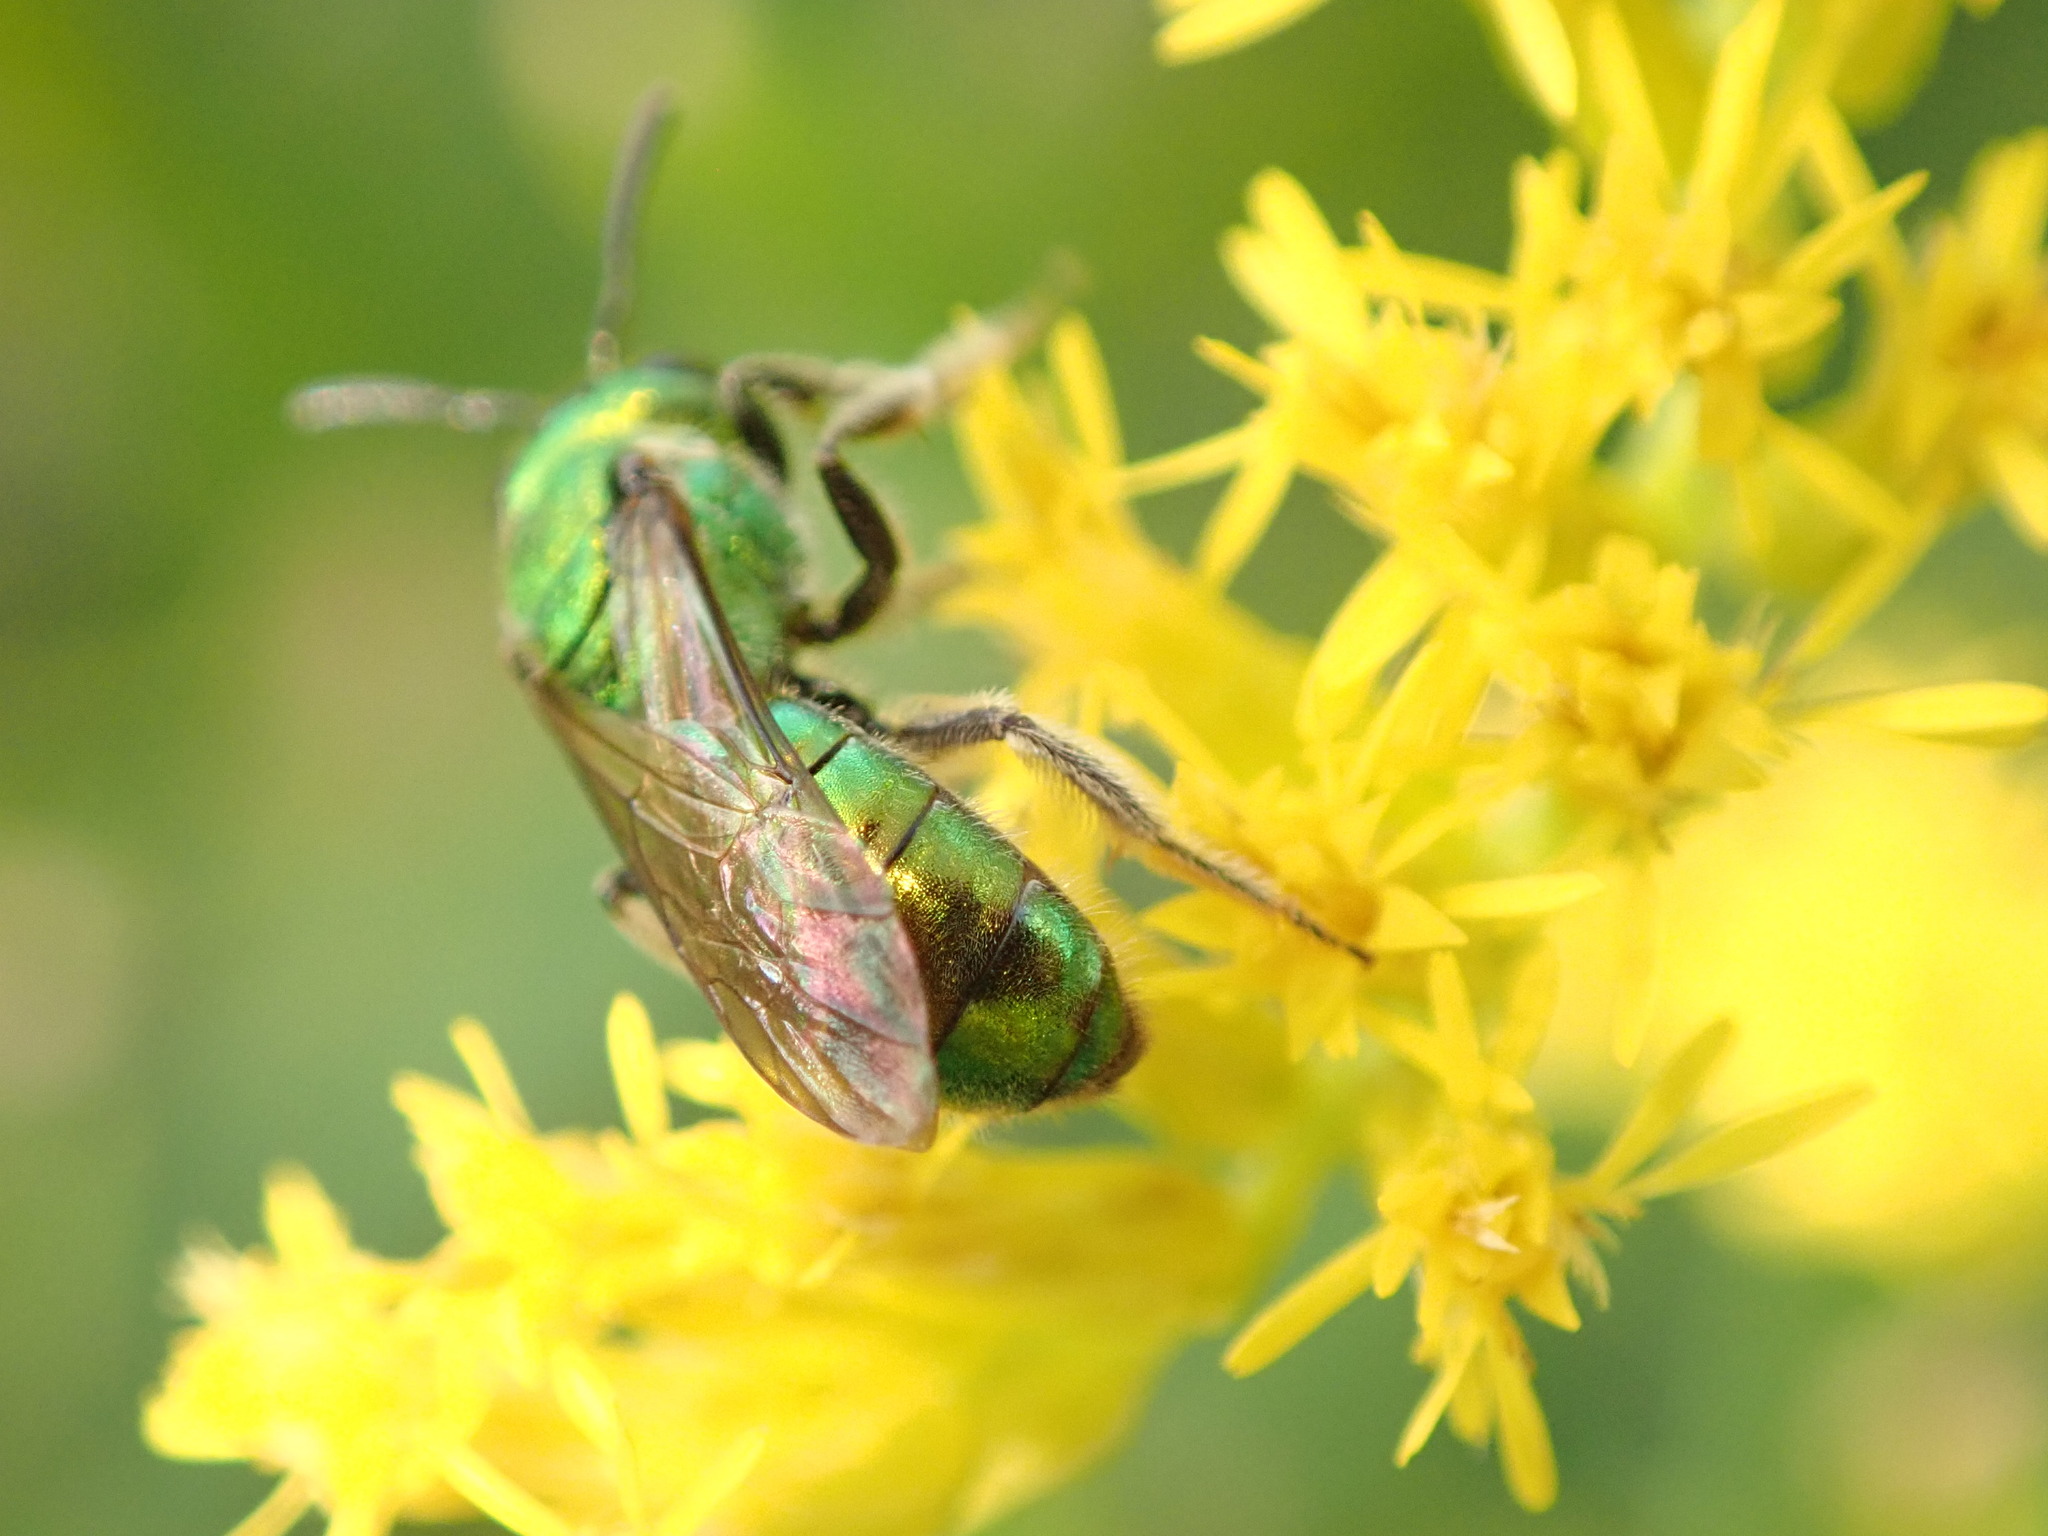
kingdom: Animalia
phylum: Arthropoda
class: Insecta
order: Hymenoptera
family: Halictidae
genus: Augochlora
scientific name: Augochlora pura
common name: Pure green sweat bee
